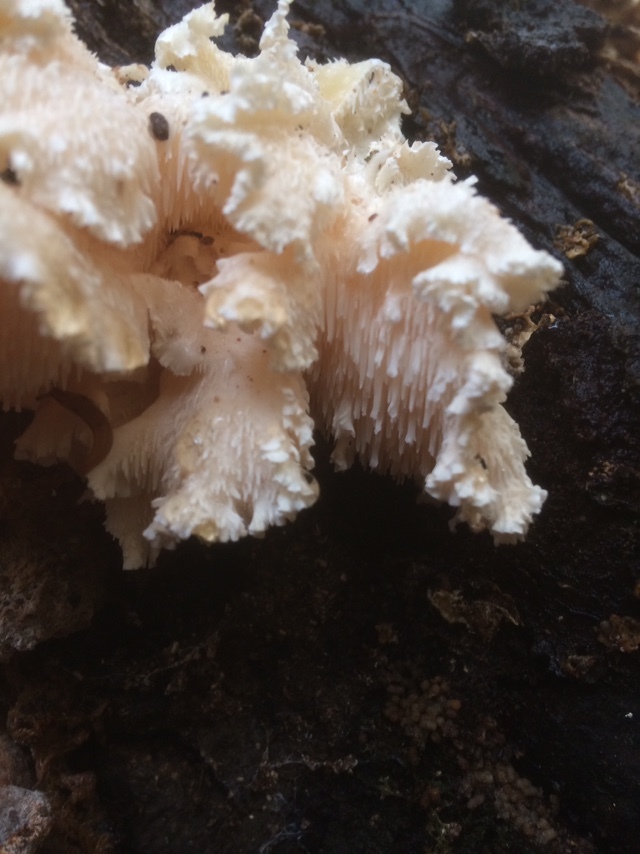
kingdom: Fungi
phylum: Basidiomycota
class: Agaricomycetes
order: Russulales
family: Hericiaceae
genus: Hericium
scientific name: Hericium cirrhatum
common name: Tiered tooth
